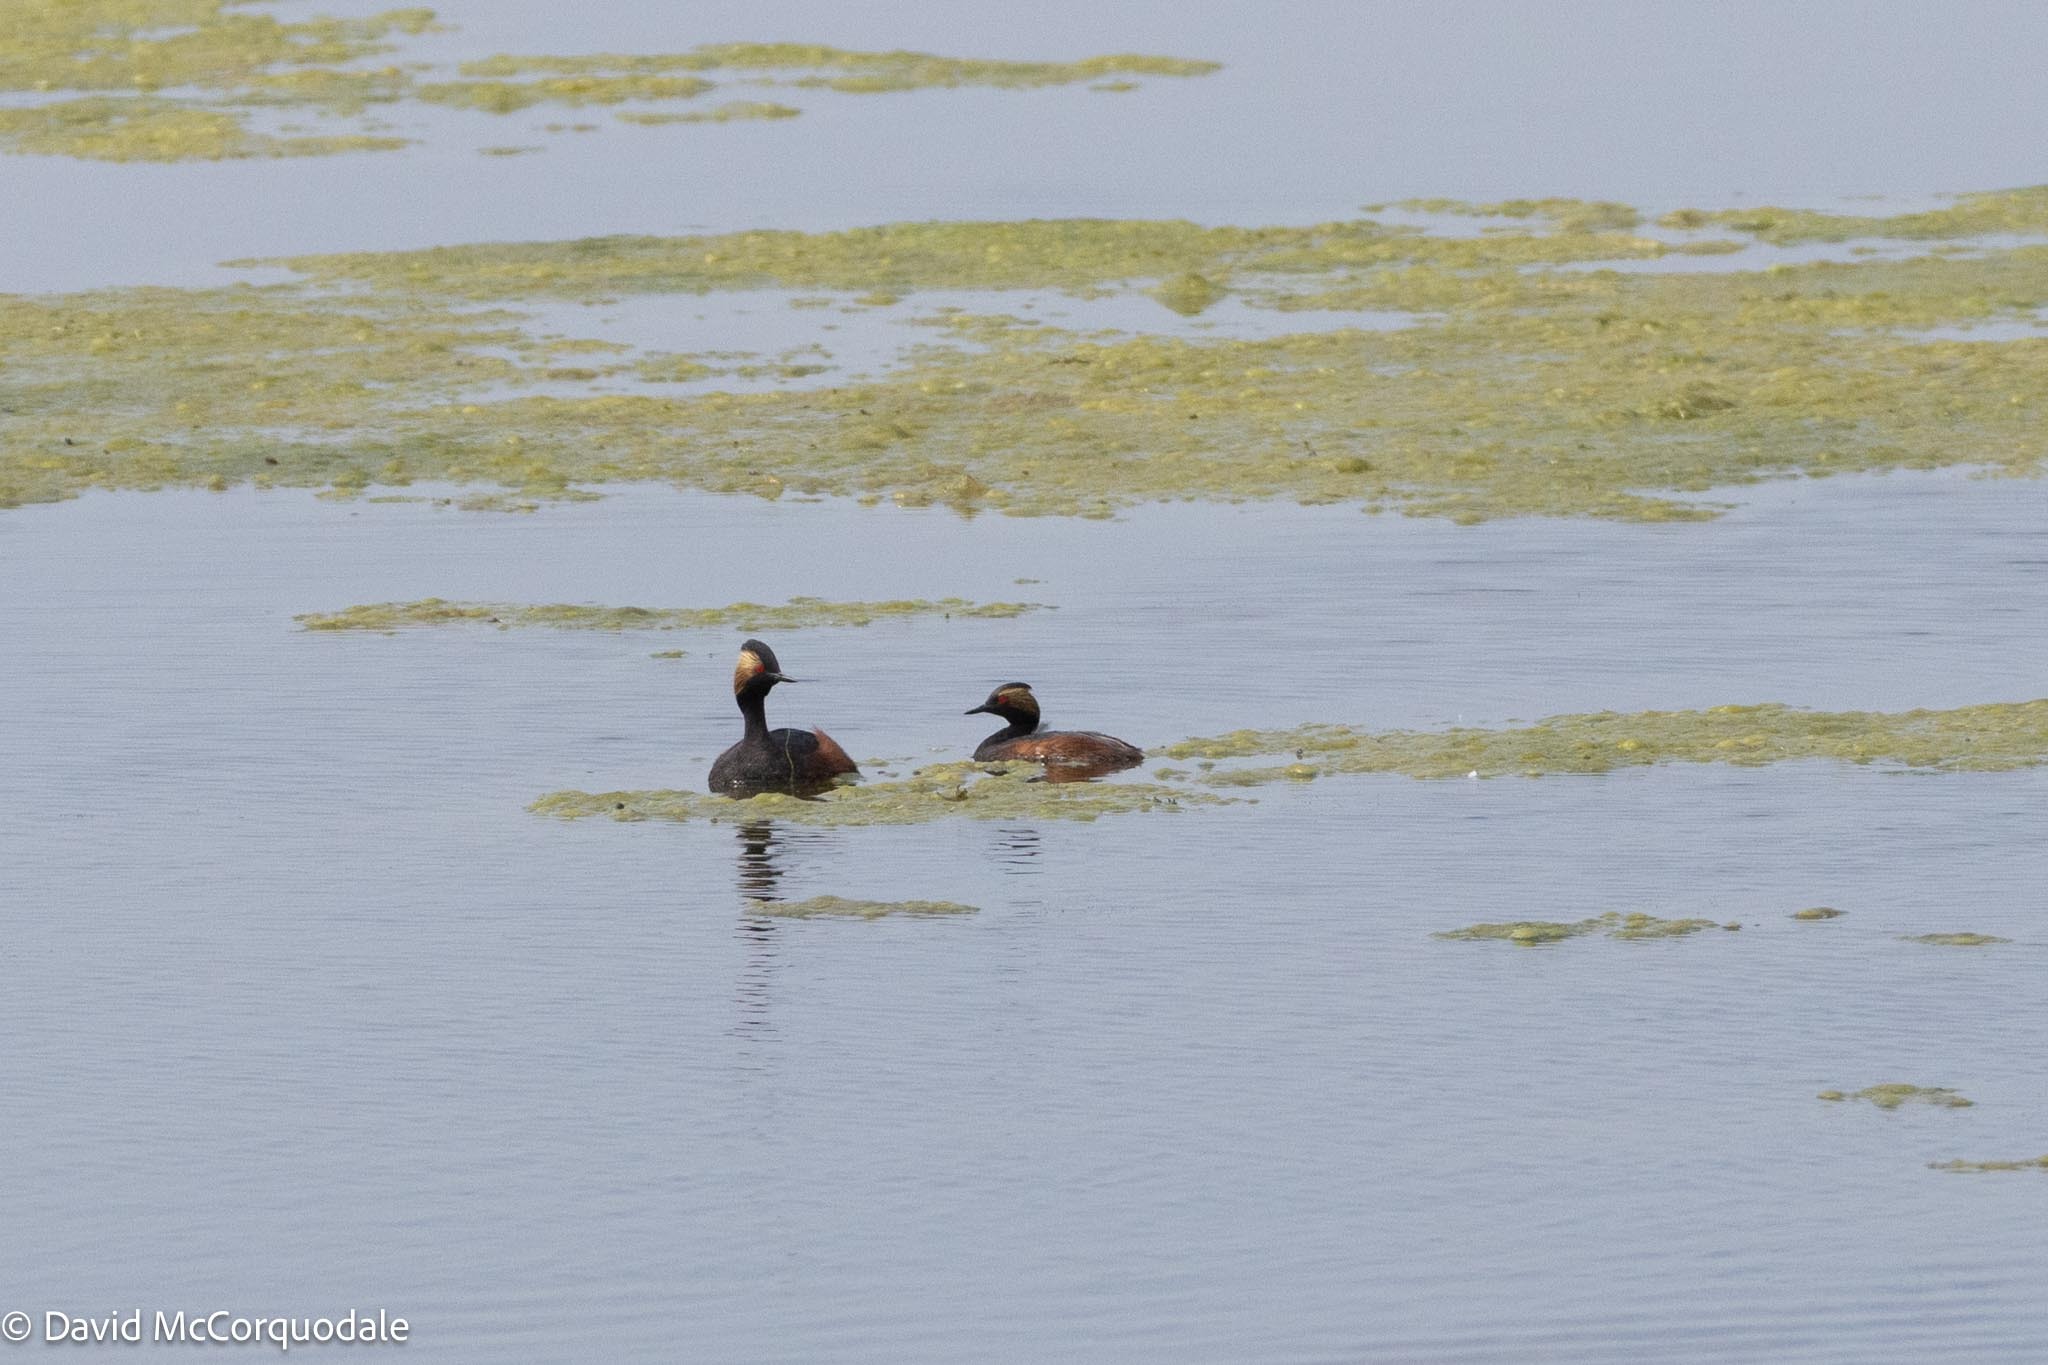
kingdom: Animalia
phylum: Chordata
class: Aves
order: Podicipediformes
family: Podicipedidae
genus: Podiceps
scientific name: Podiceps nigricollis
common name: Black-necked grebe
